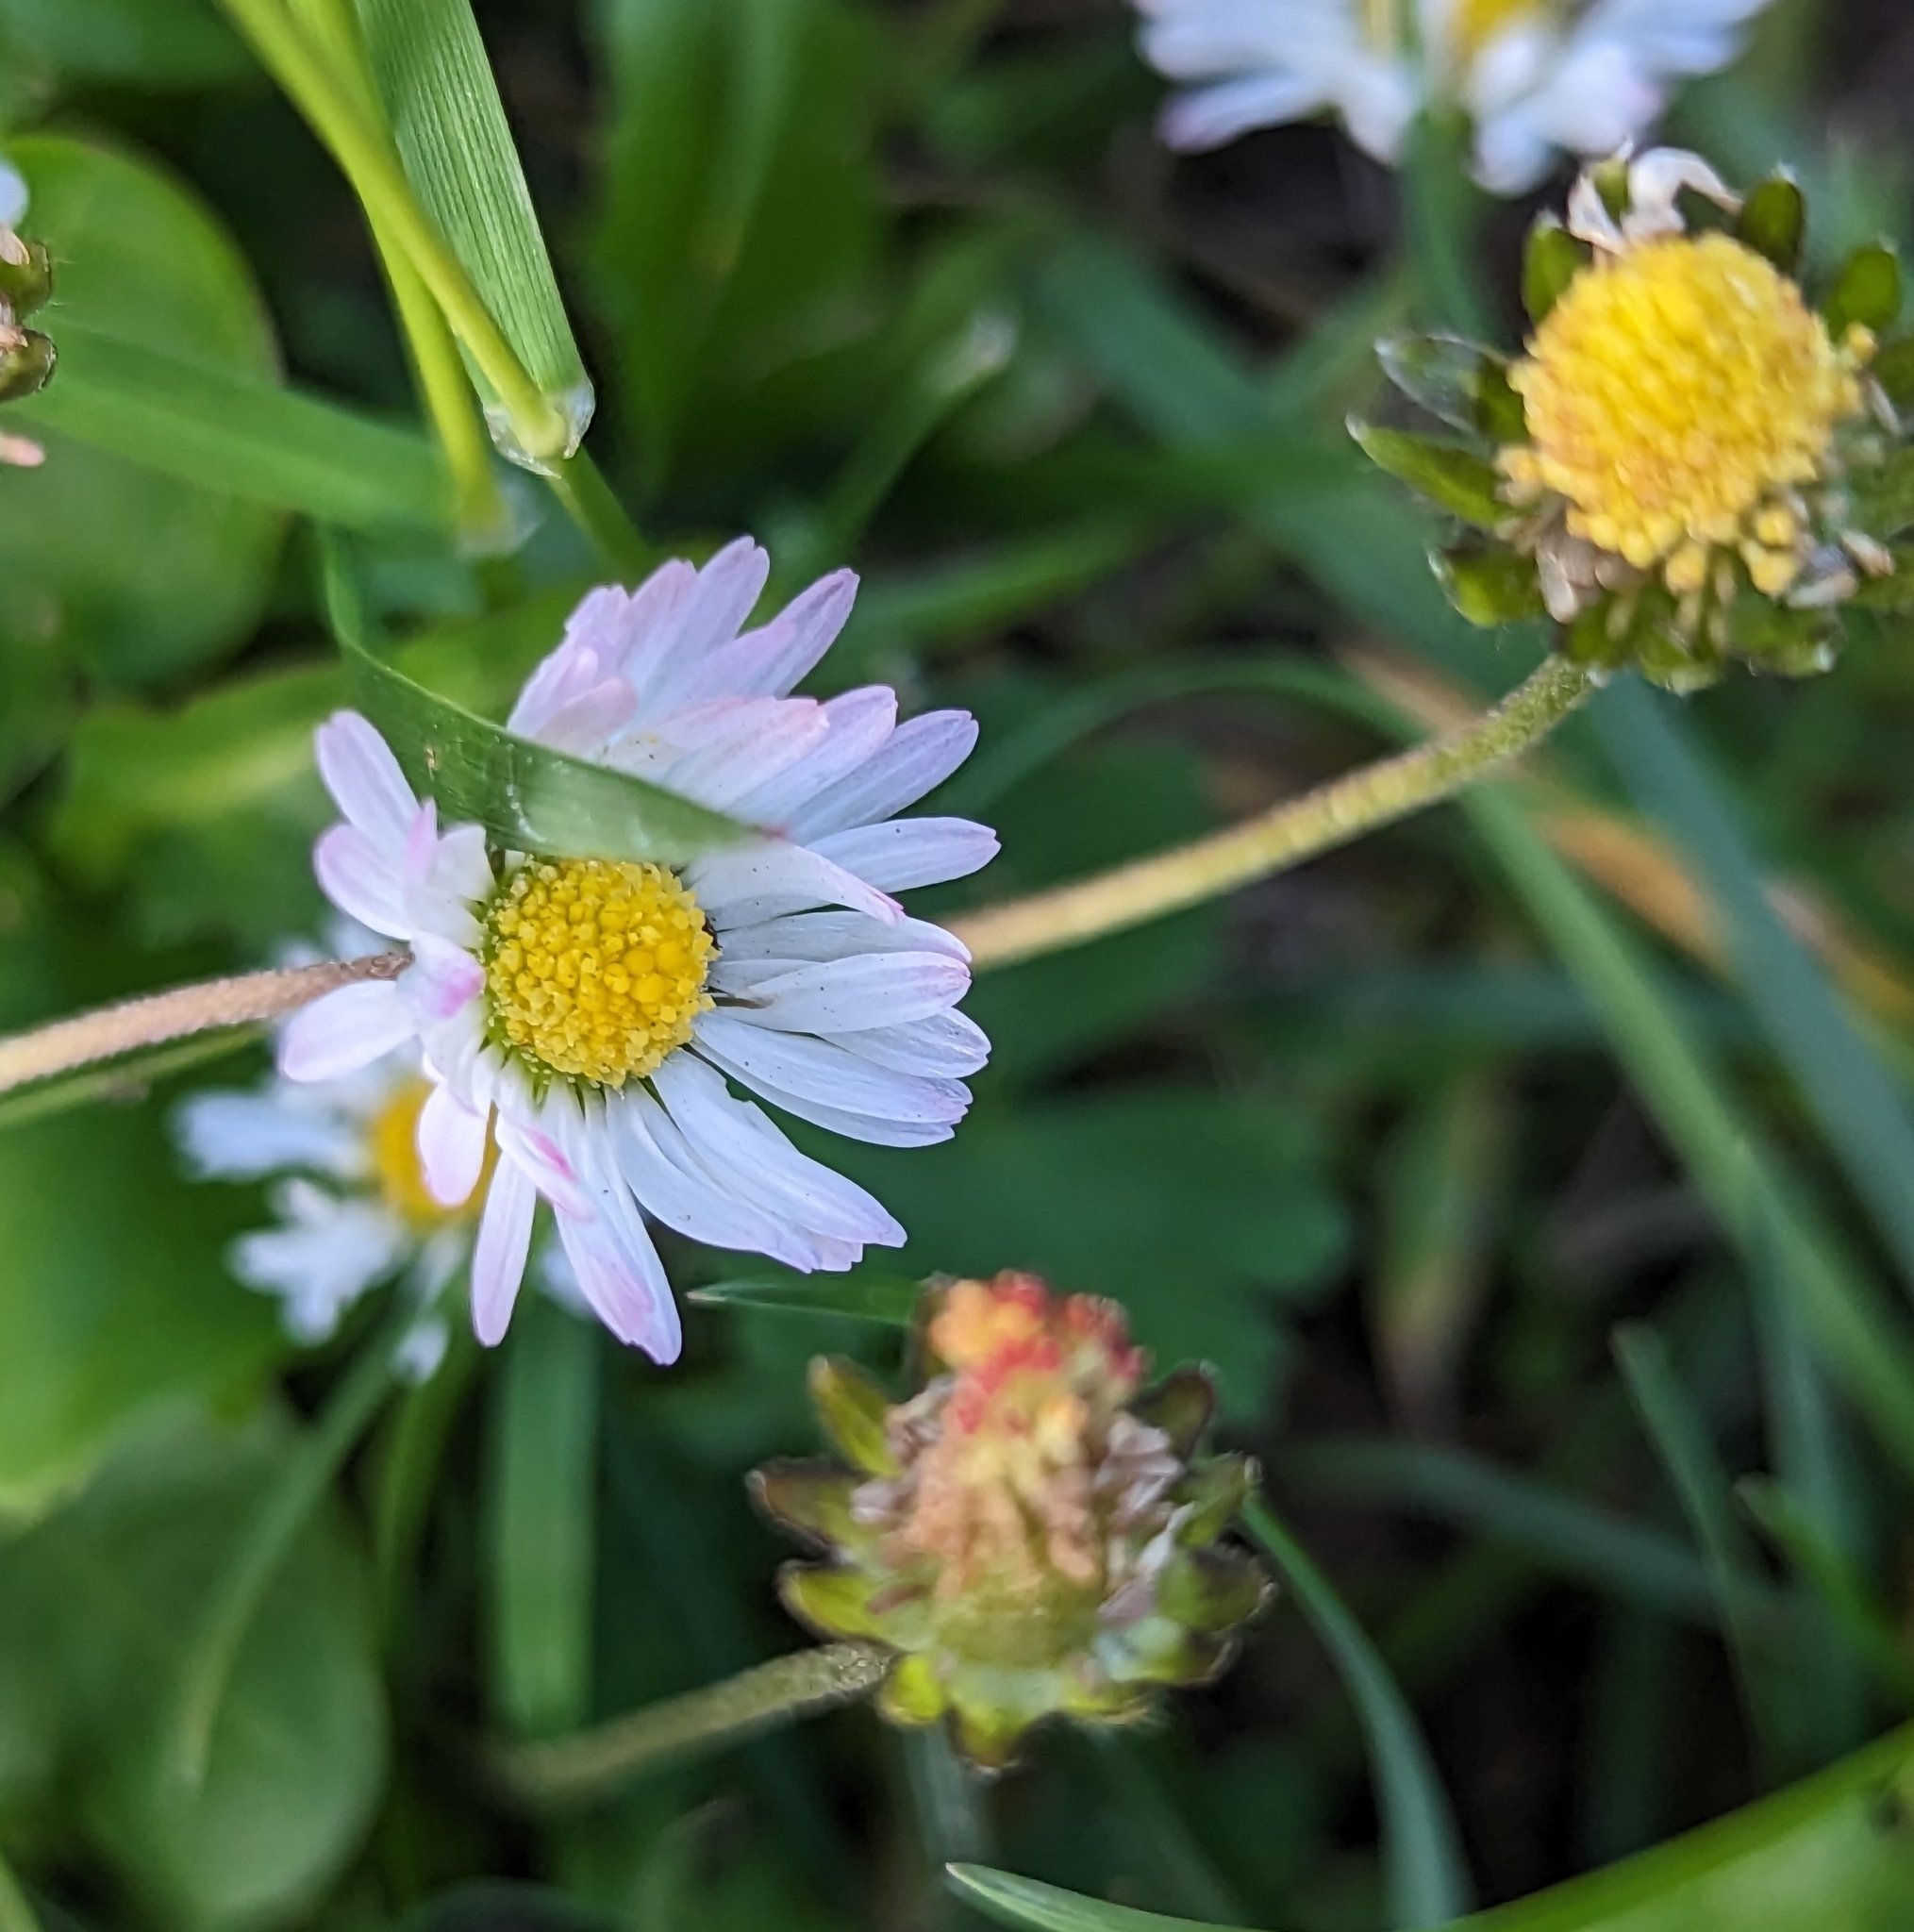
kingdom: Plantae
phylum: Tracheophyta
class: Magnoliopsida
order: Asterales
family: Asteraceae
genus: Bellis
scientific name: Bellis perennis
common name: Lawndaisy
